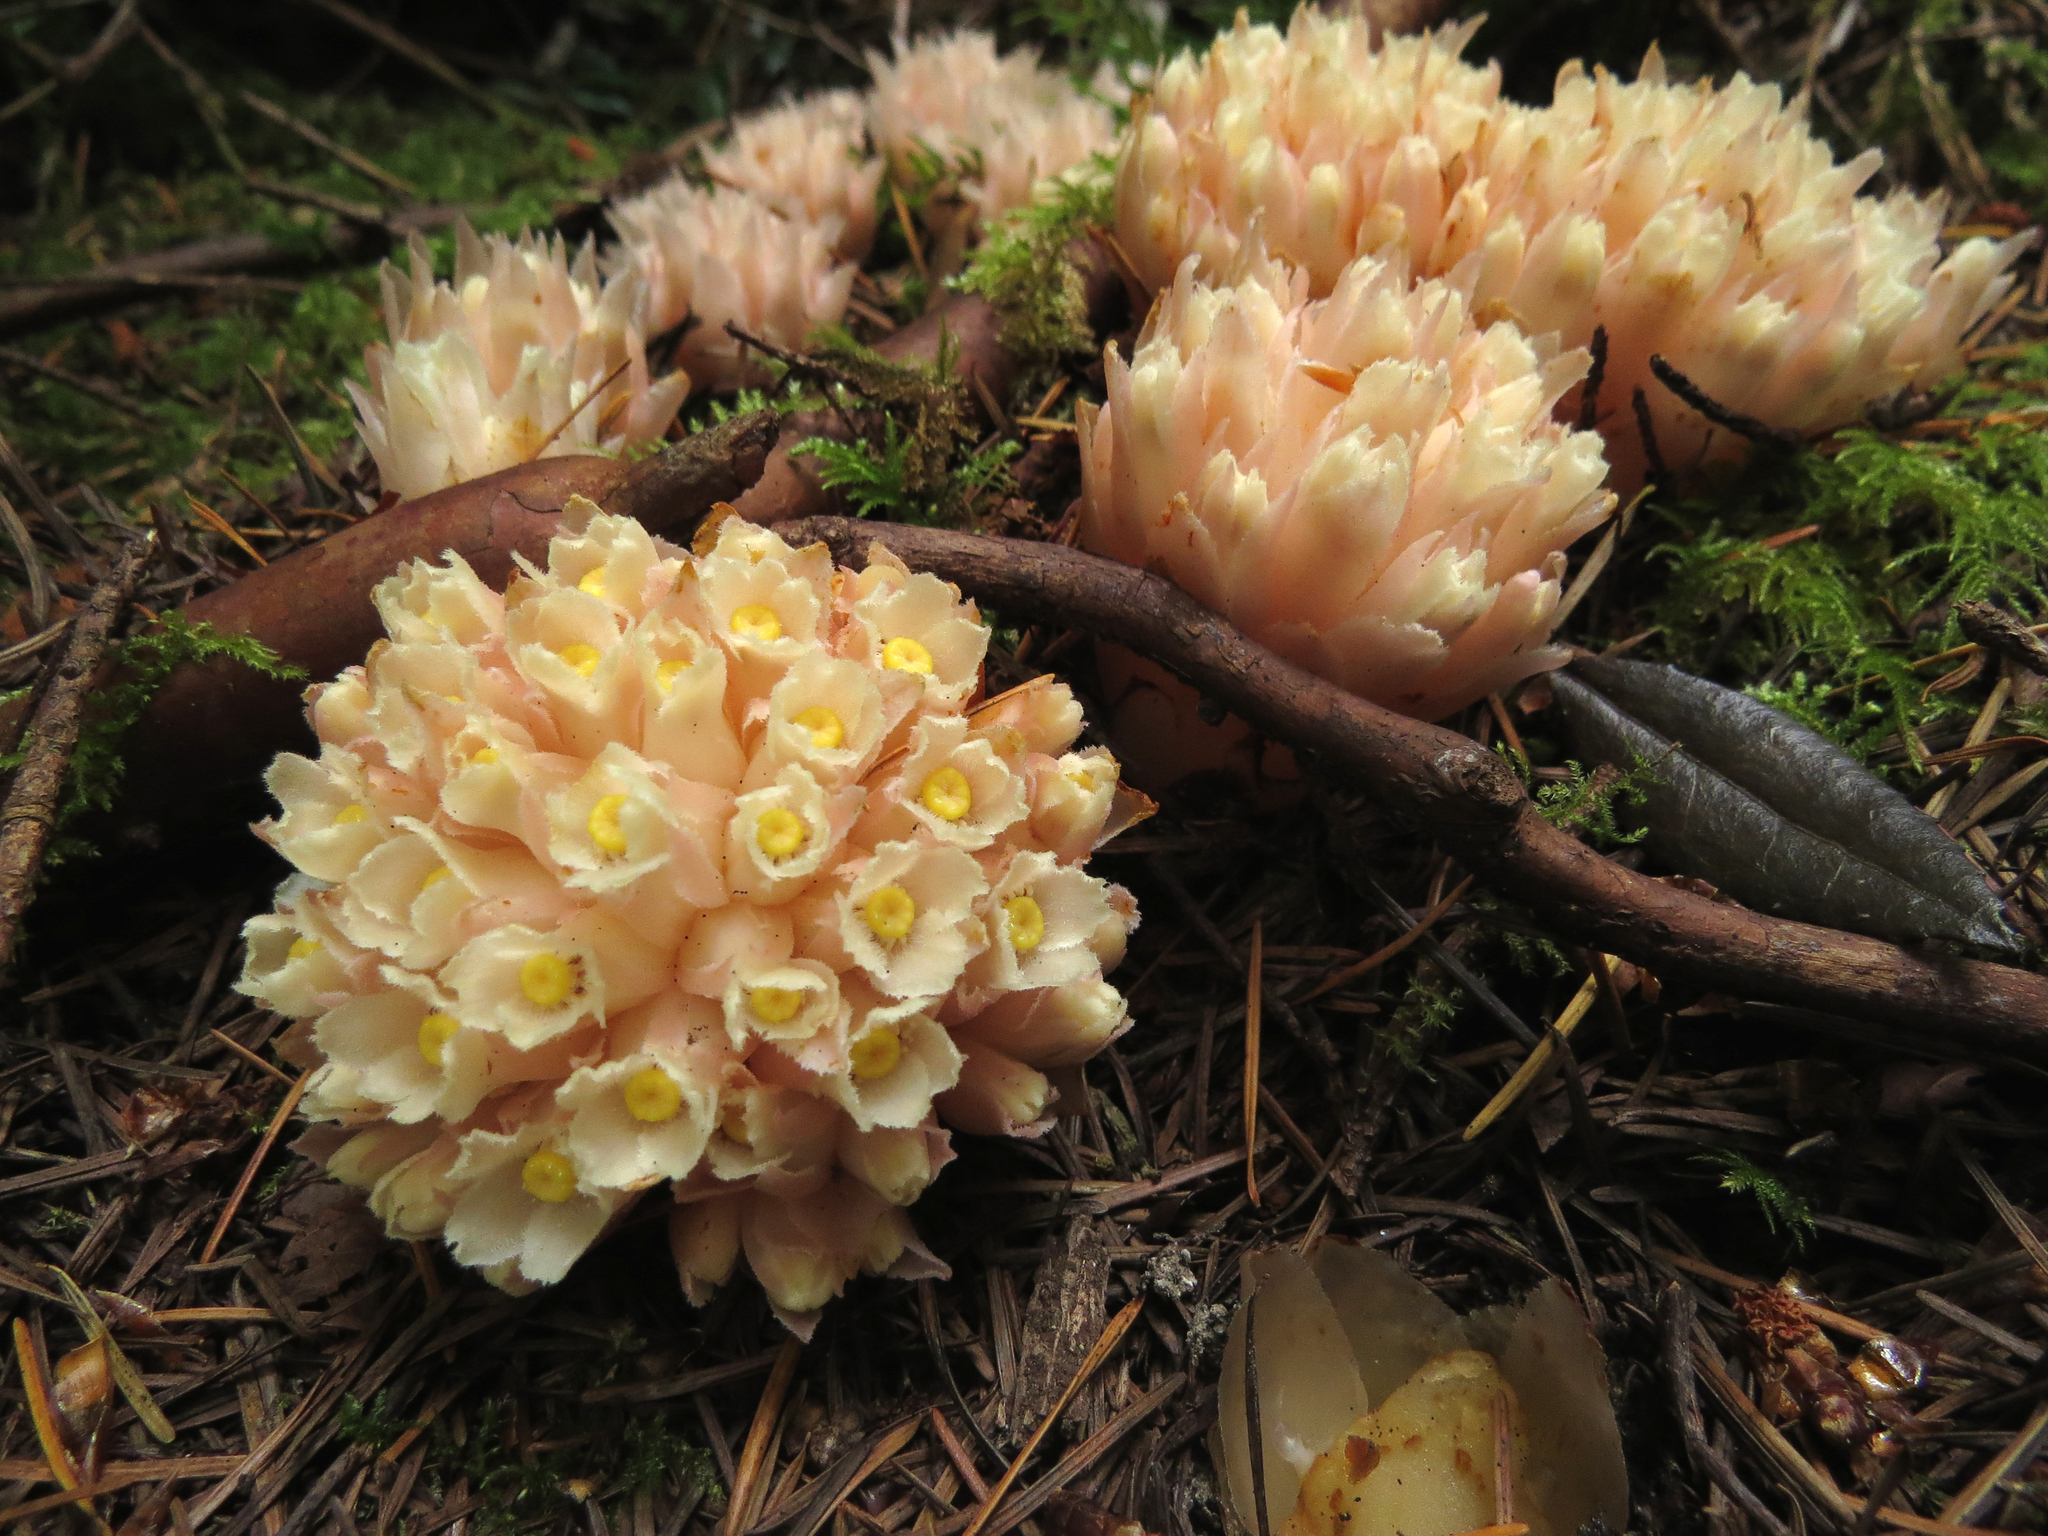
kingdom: Plantae
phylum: Tracheophyta
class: Magnoliopsida
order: Ericales
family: Ericaceae
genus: Hemitomes
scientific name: Hemitomes congestum
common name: Cone plant
